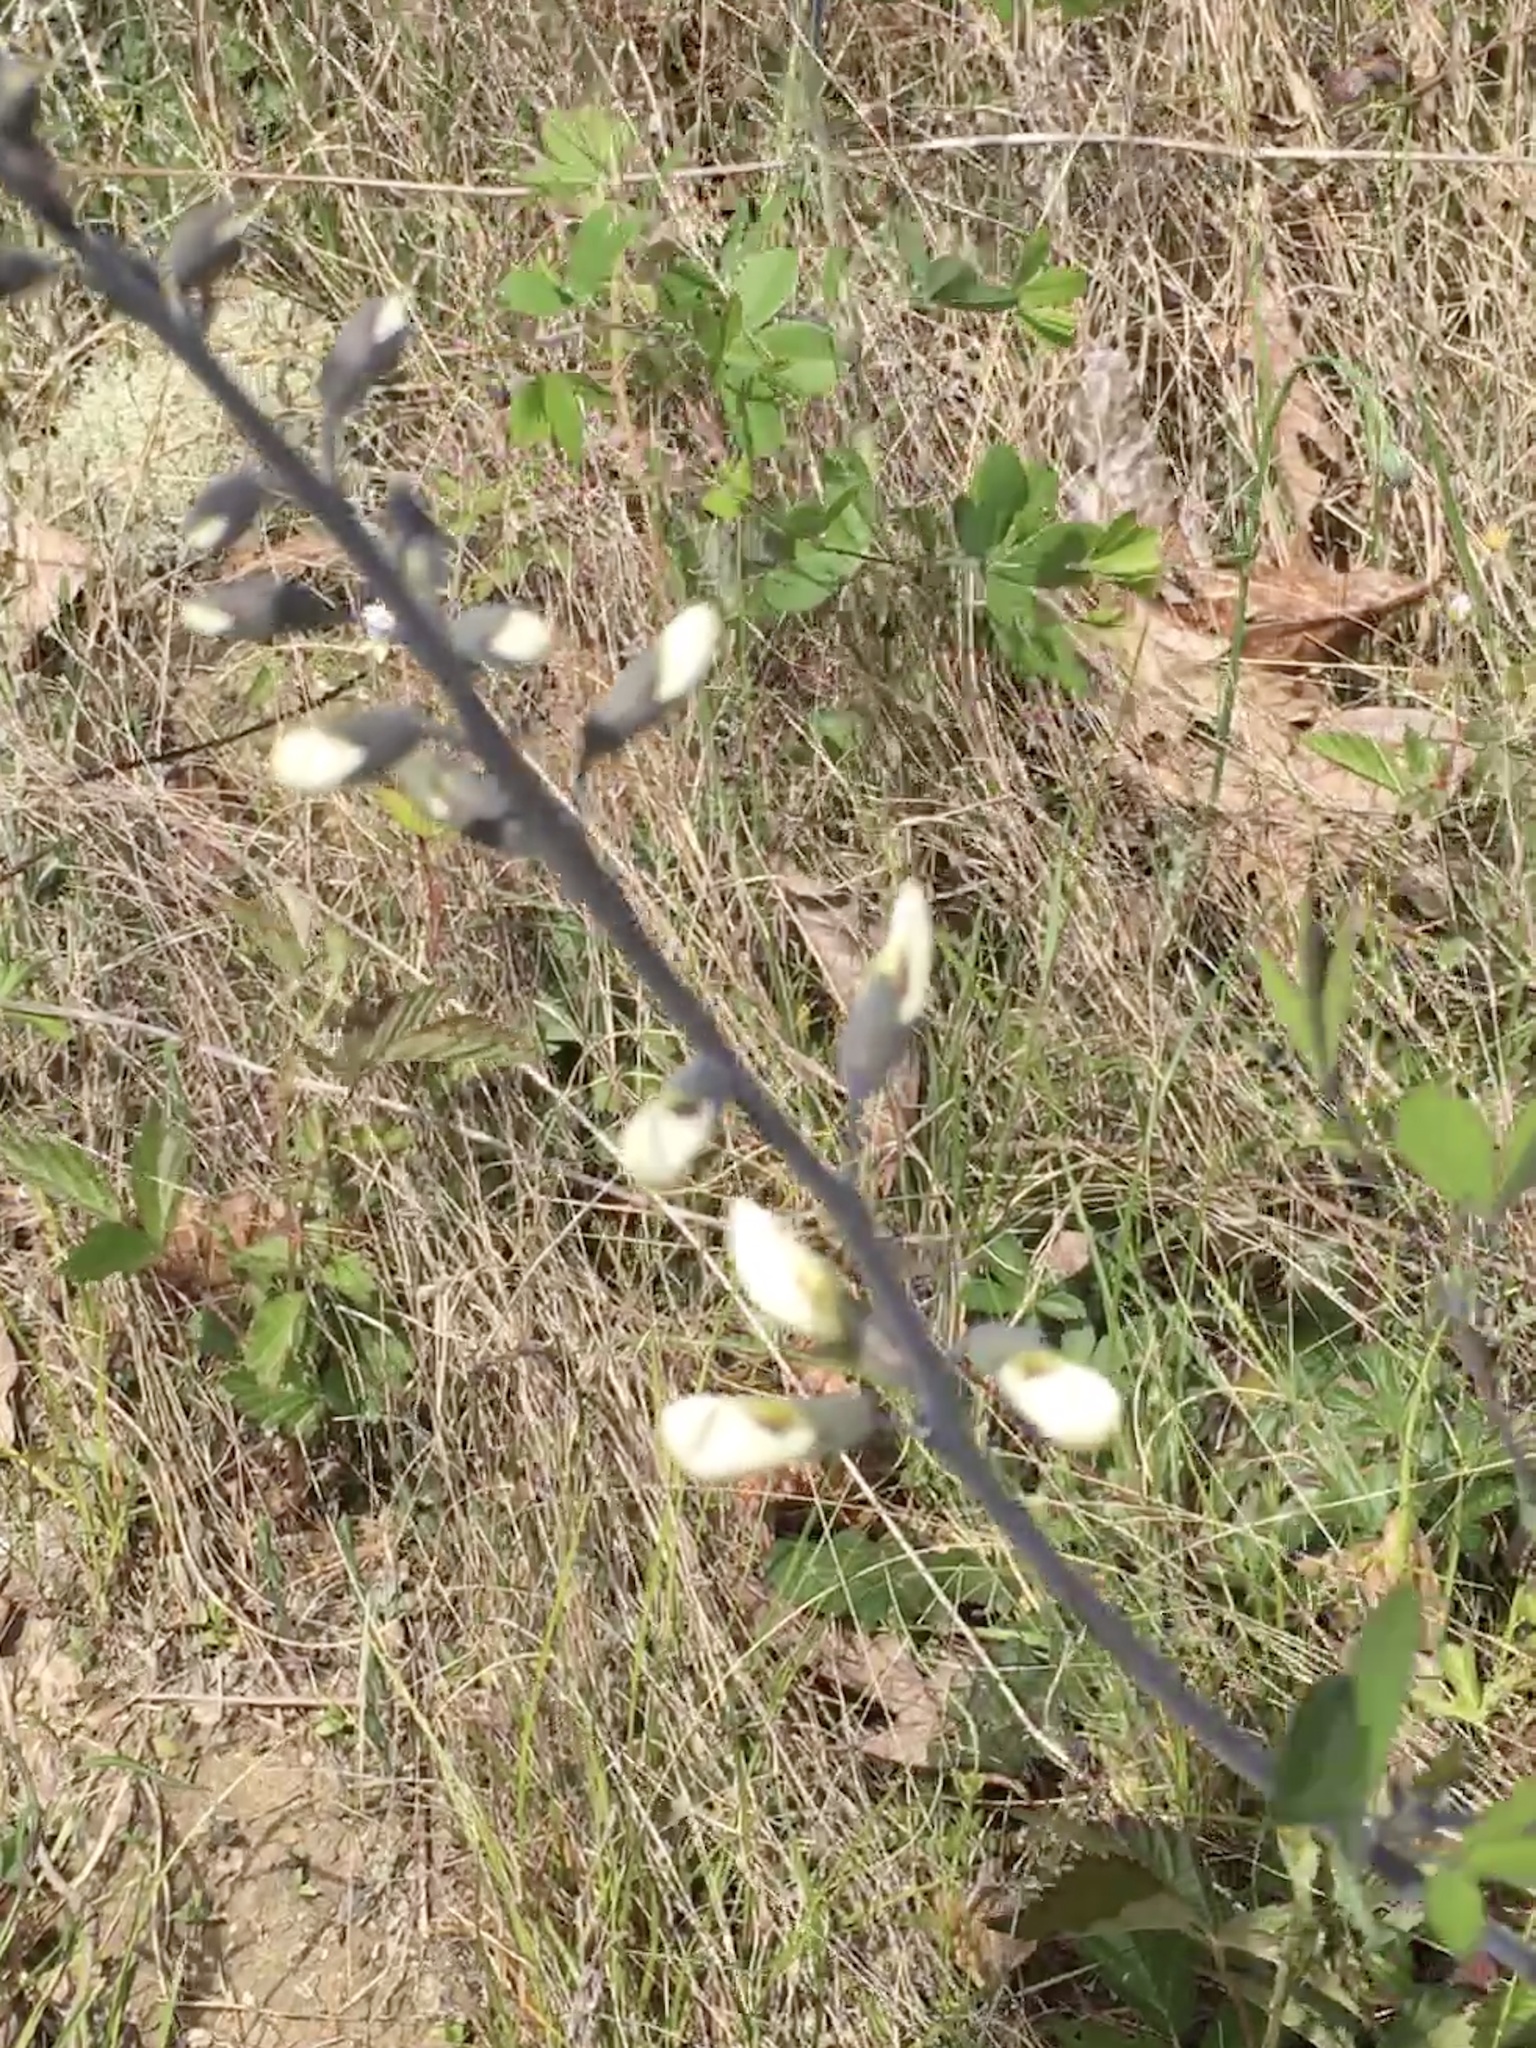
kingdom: Plantae
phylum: Tracheophyta
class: Magnoliopsida
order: Fabales
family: Fabaceae
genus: Baptisia
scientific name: Baptisia alba
